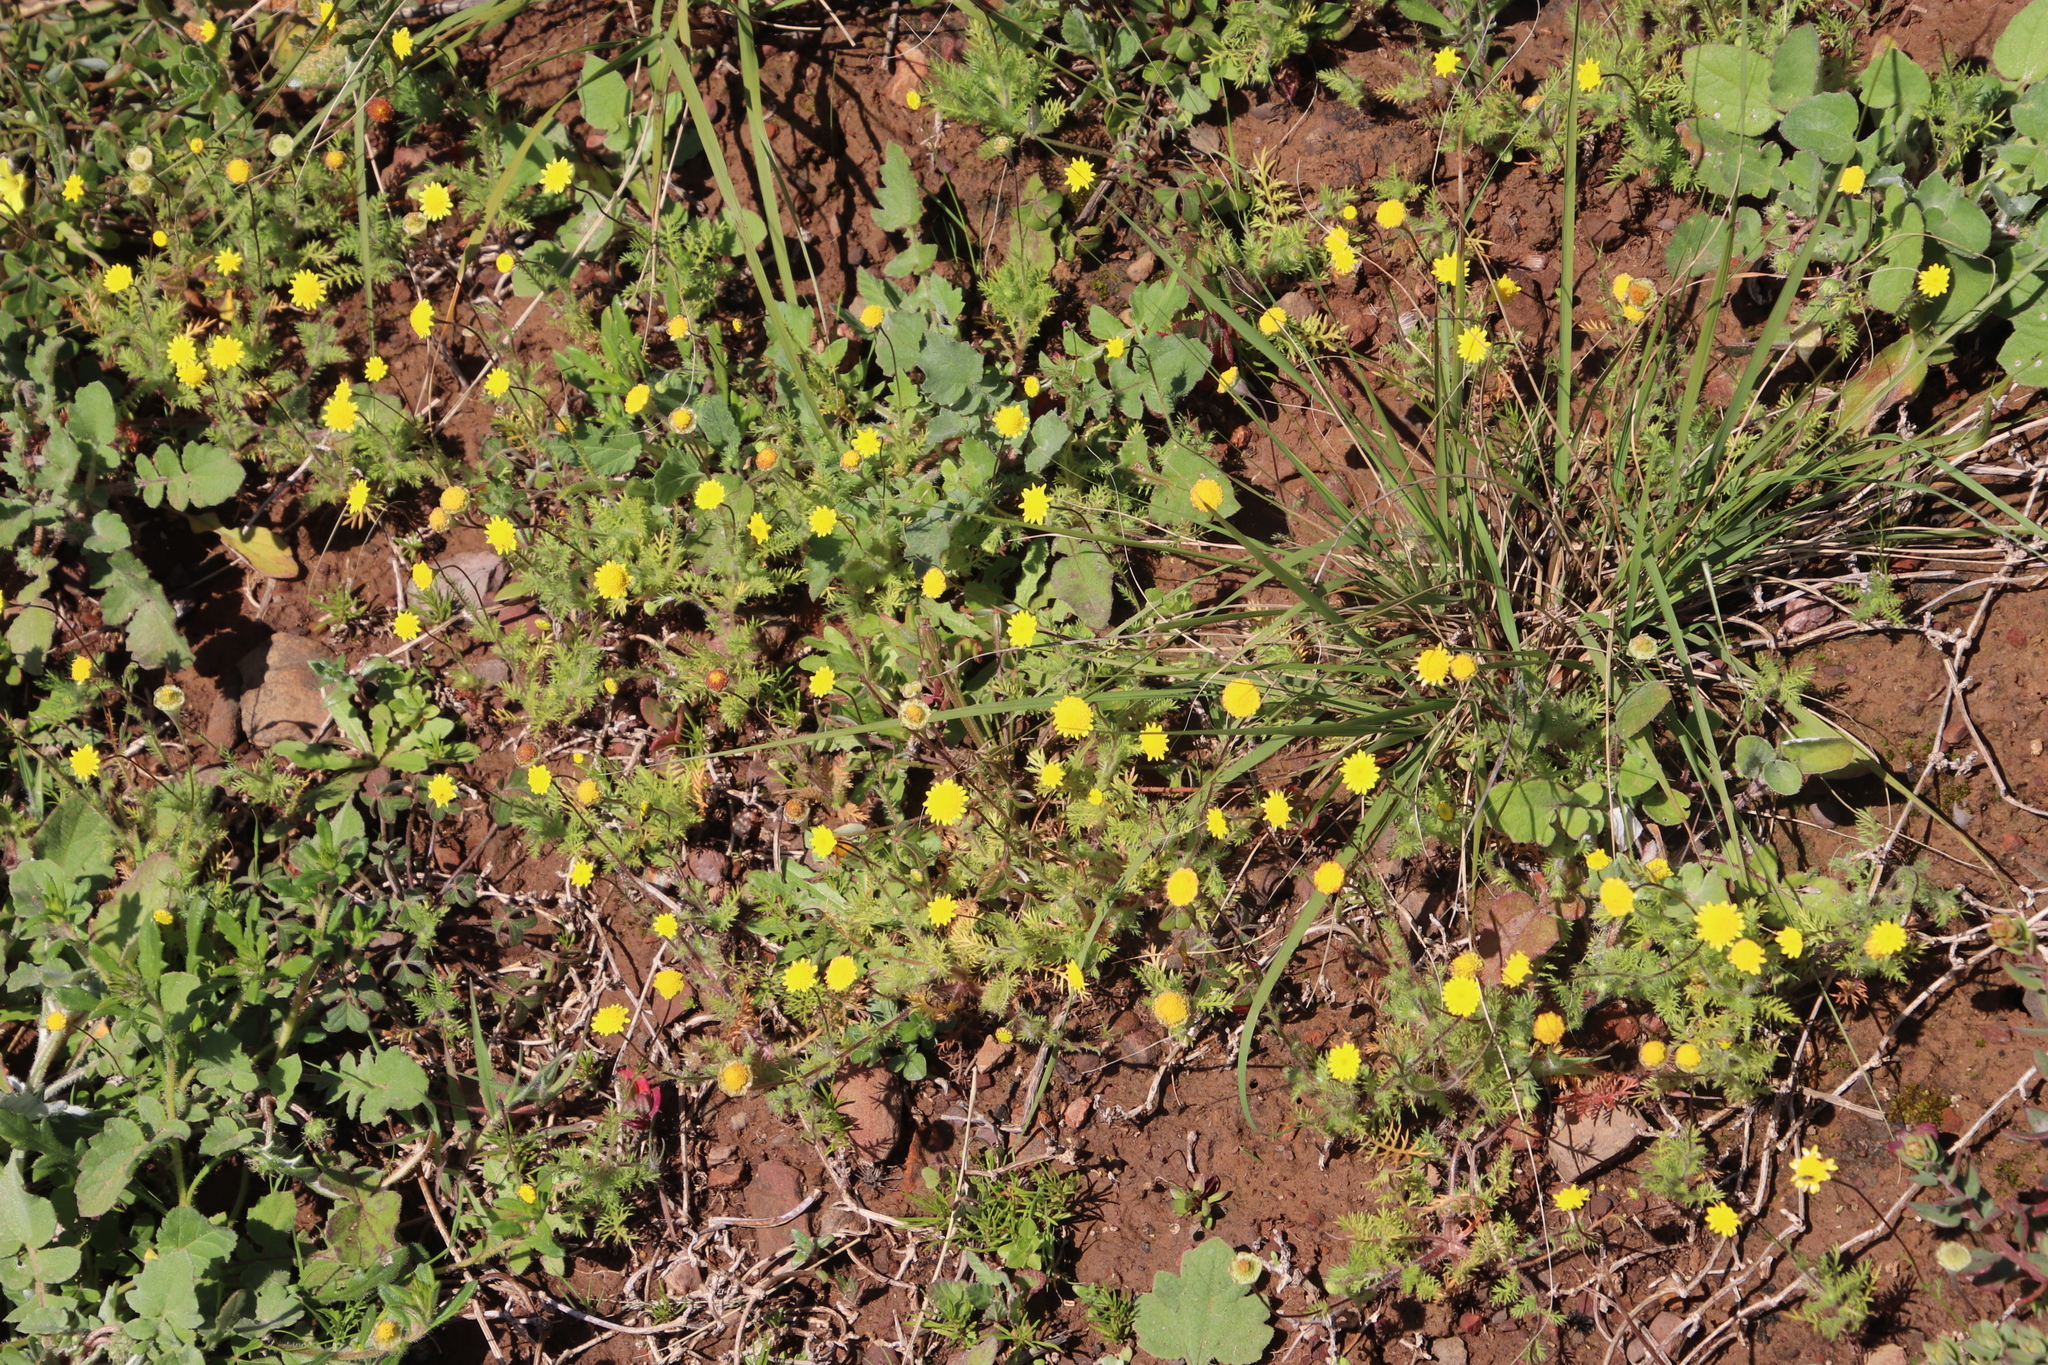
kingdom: Plantae
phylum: Tracheophyta
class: Magnoliopsida
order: Asterales
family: Asteraceae
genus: Cotula
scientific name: Cotula pruinosa
